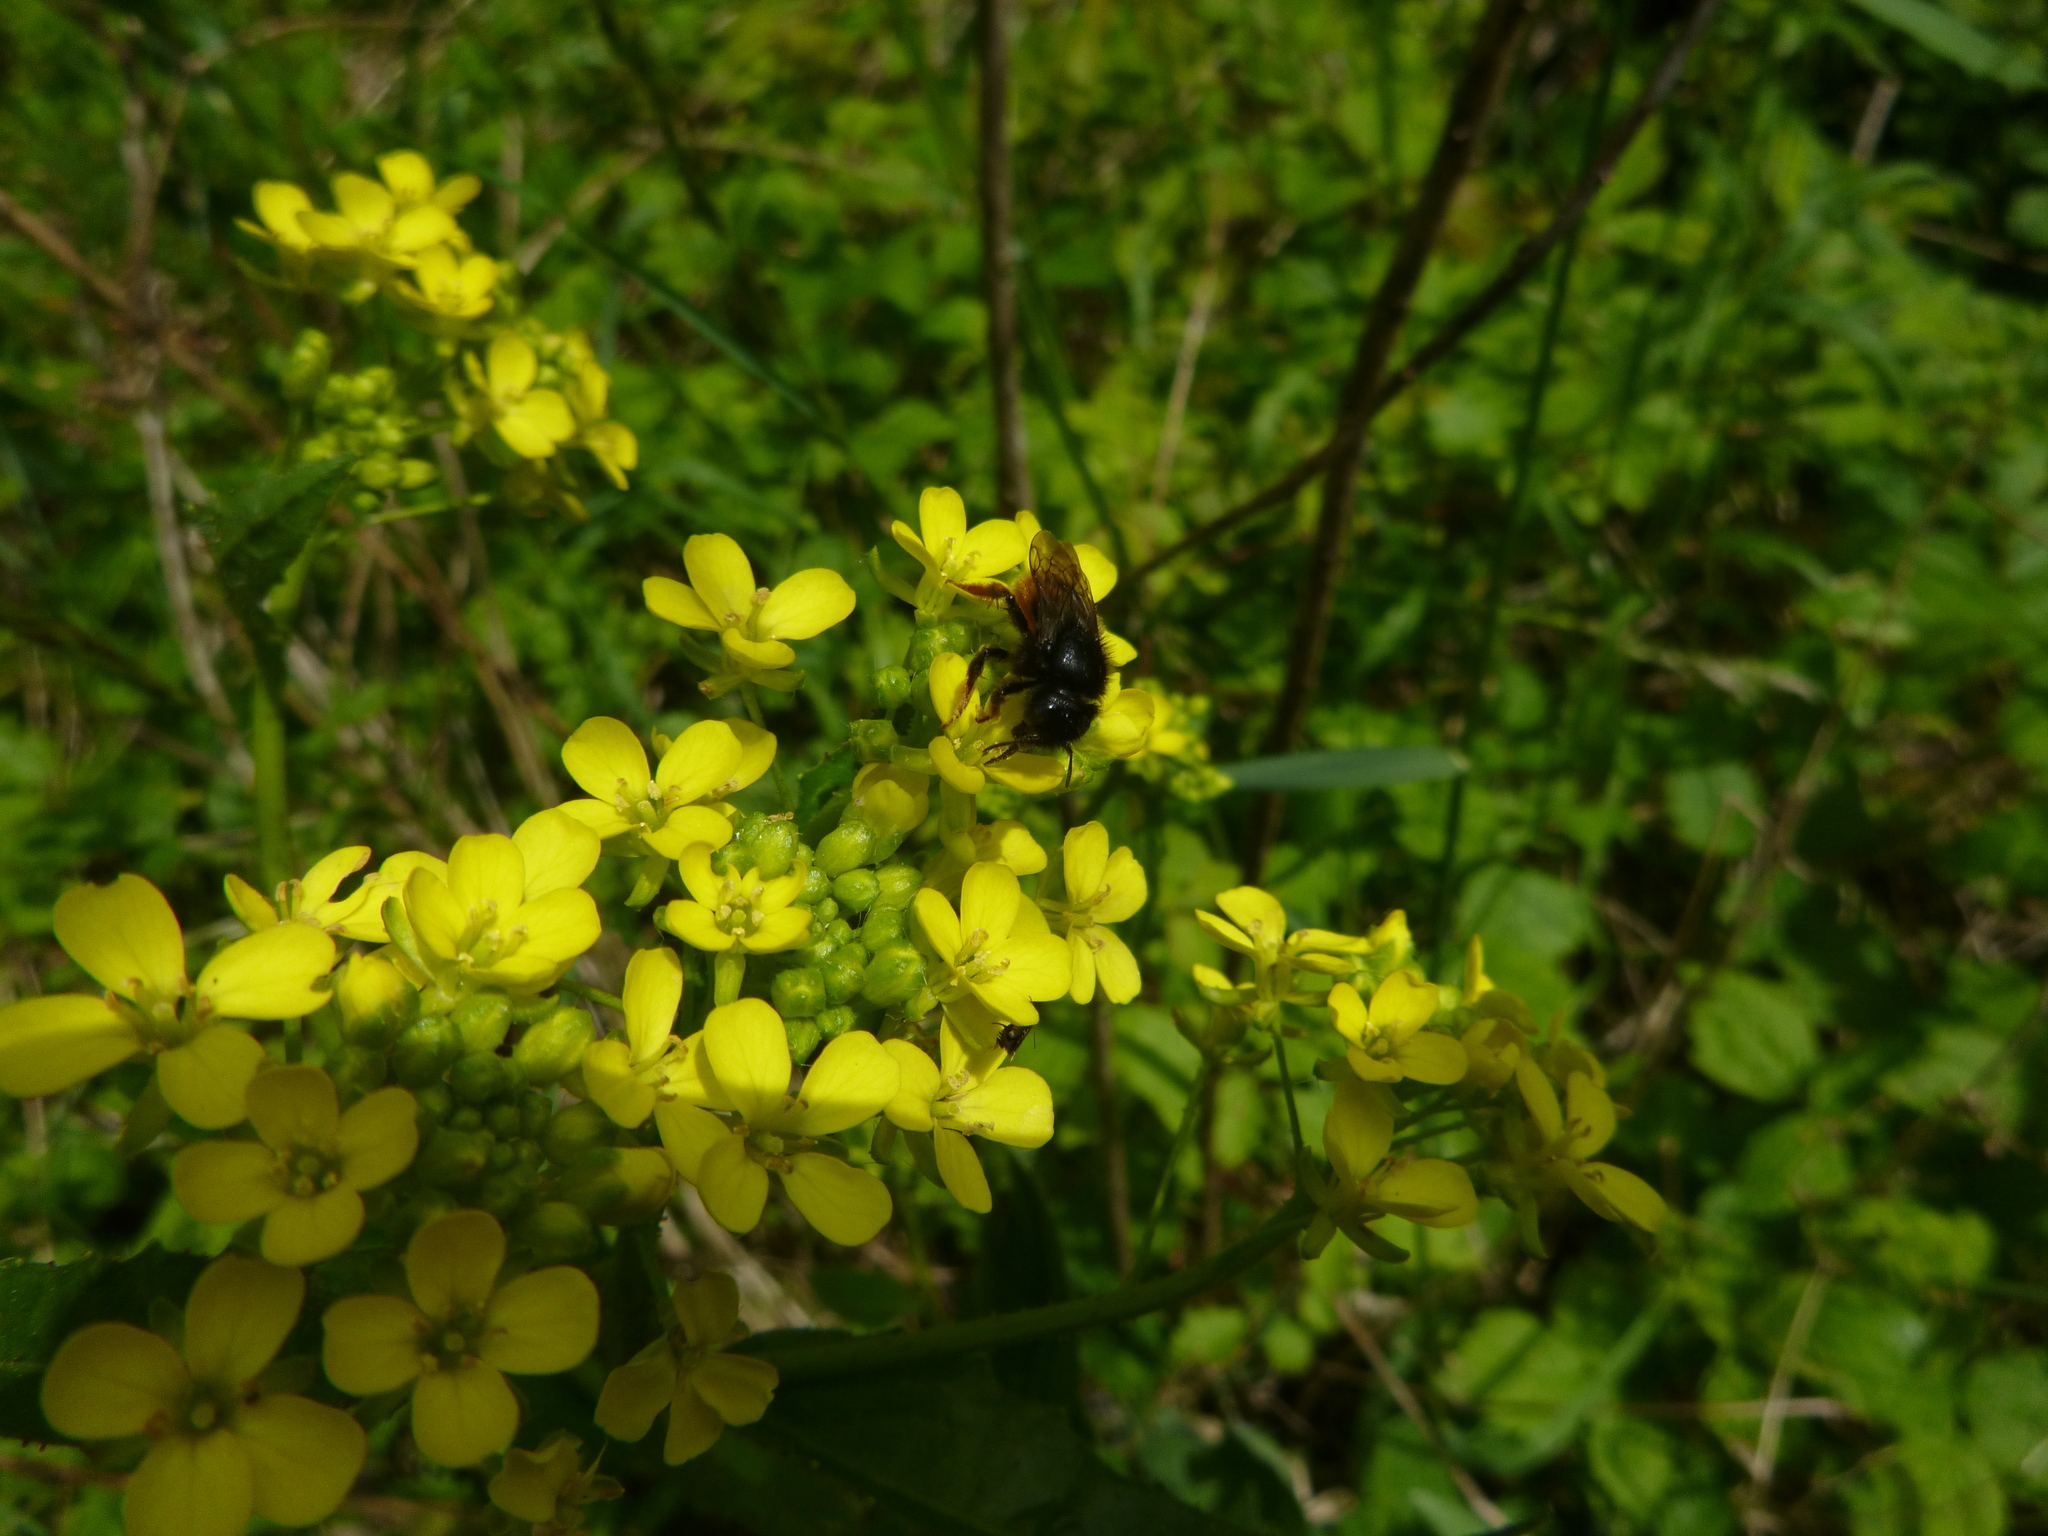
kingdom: Animalia
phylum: Arthropoda
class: Insecta
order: Hymenoptera
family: Megachilidae
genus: Osmia
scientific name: Osmia bicolor
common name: Red-tailed mason bee
